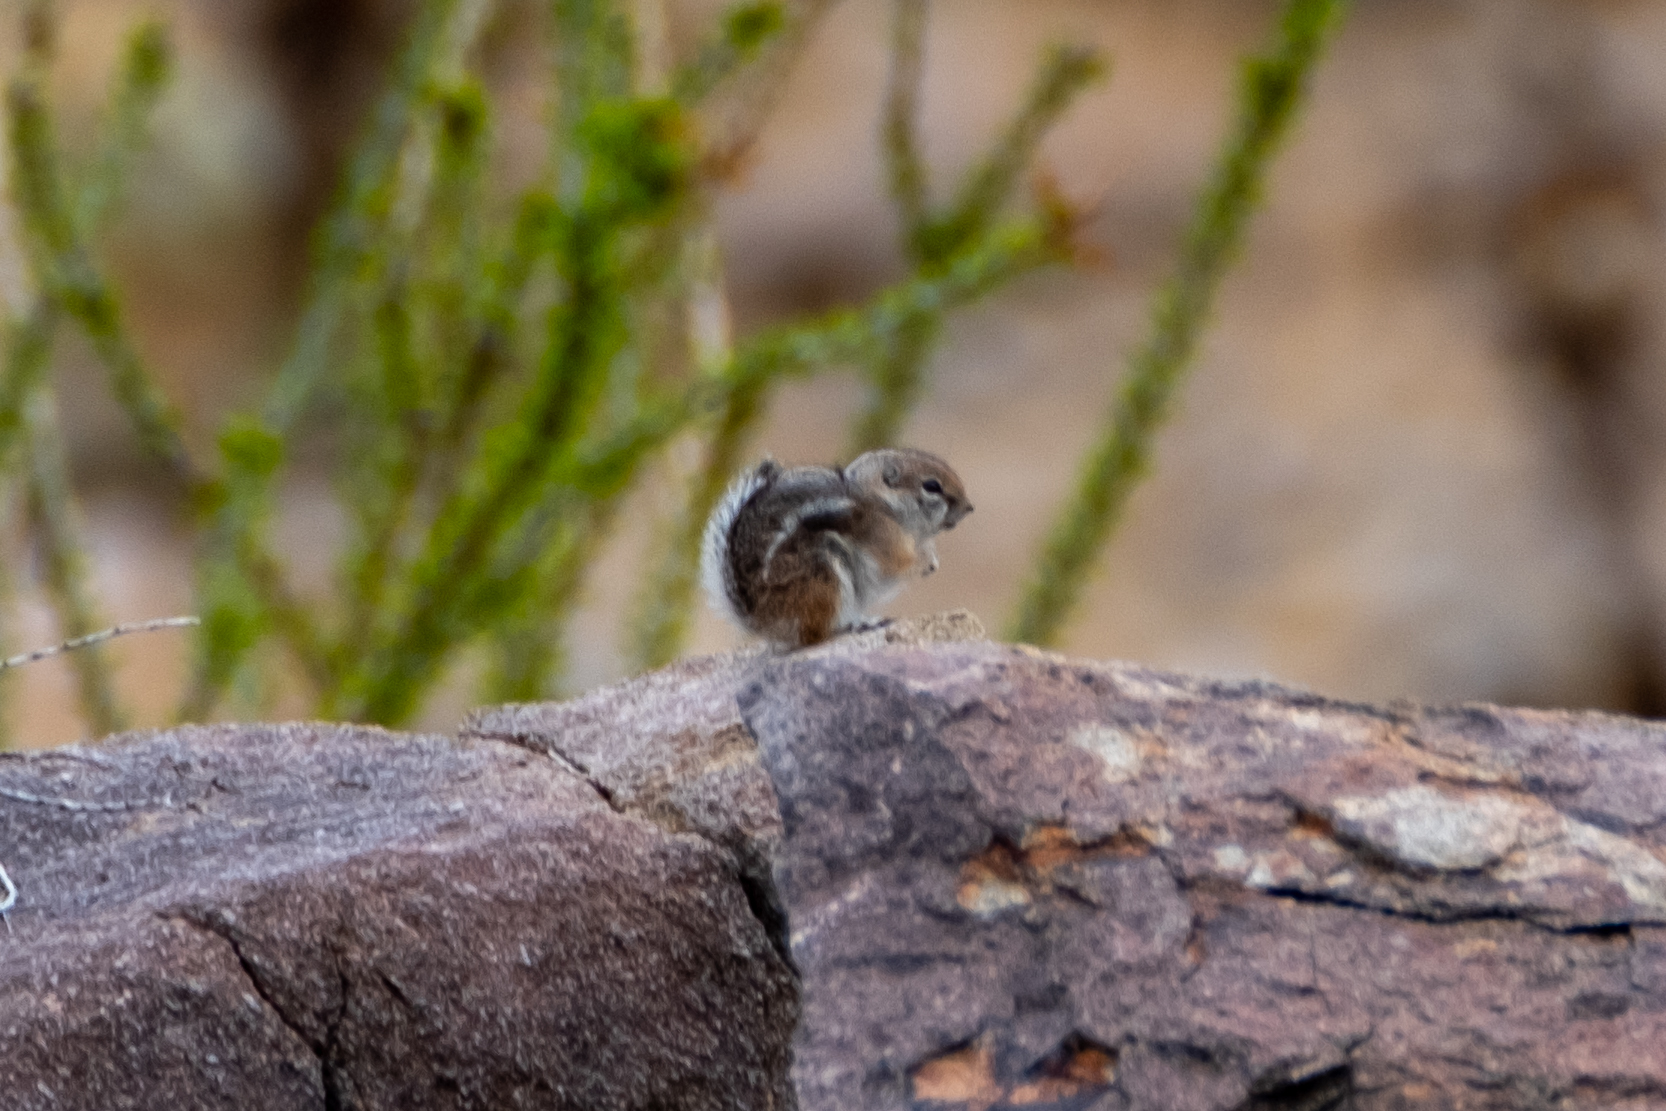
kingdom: Animalia
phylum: Chordata
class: Mammalia
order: Rodentia
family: Sciuridae
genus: Ammospermophilus
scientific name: Ammospermophilus leucurus
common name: White-tailed antelope squirrel
